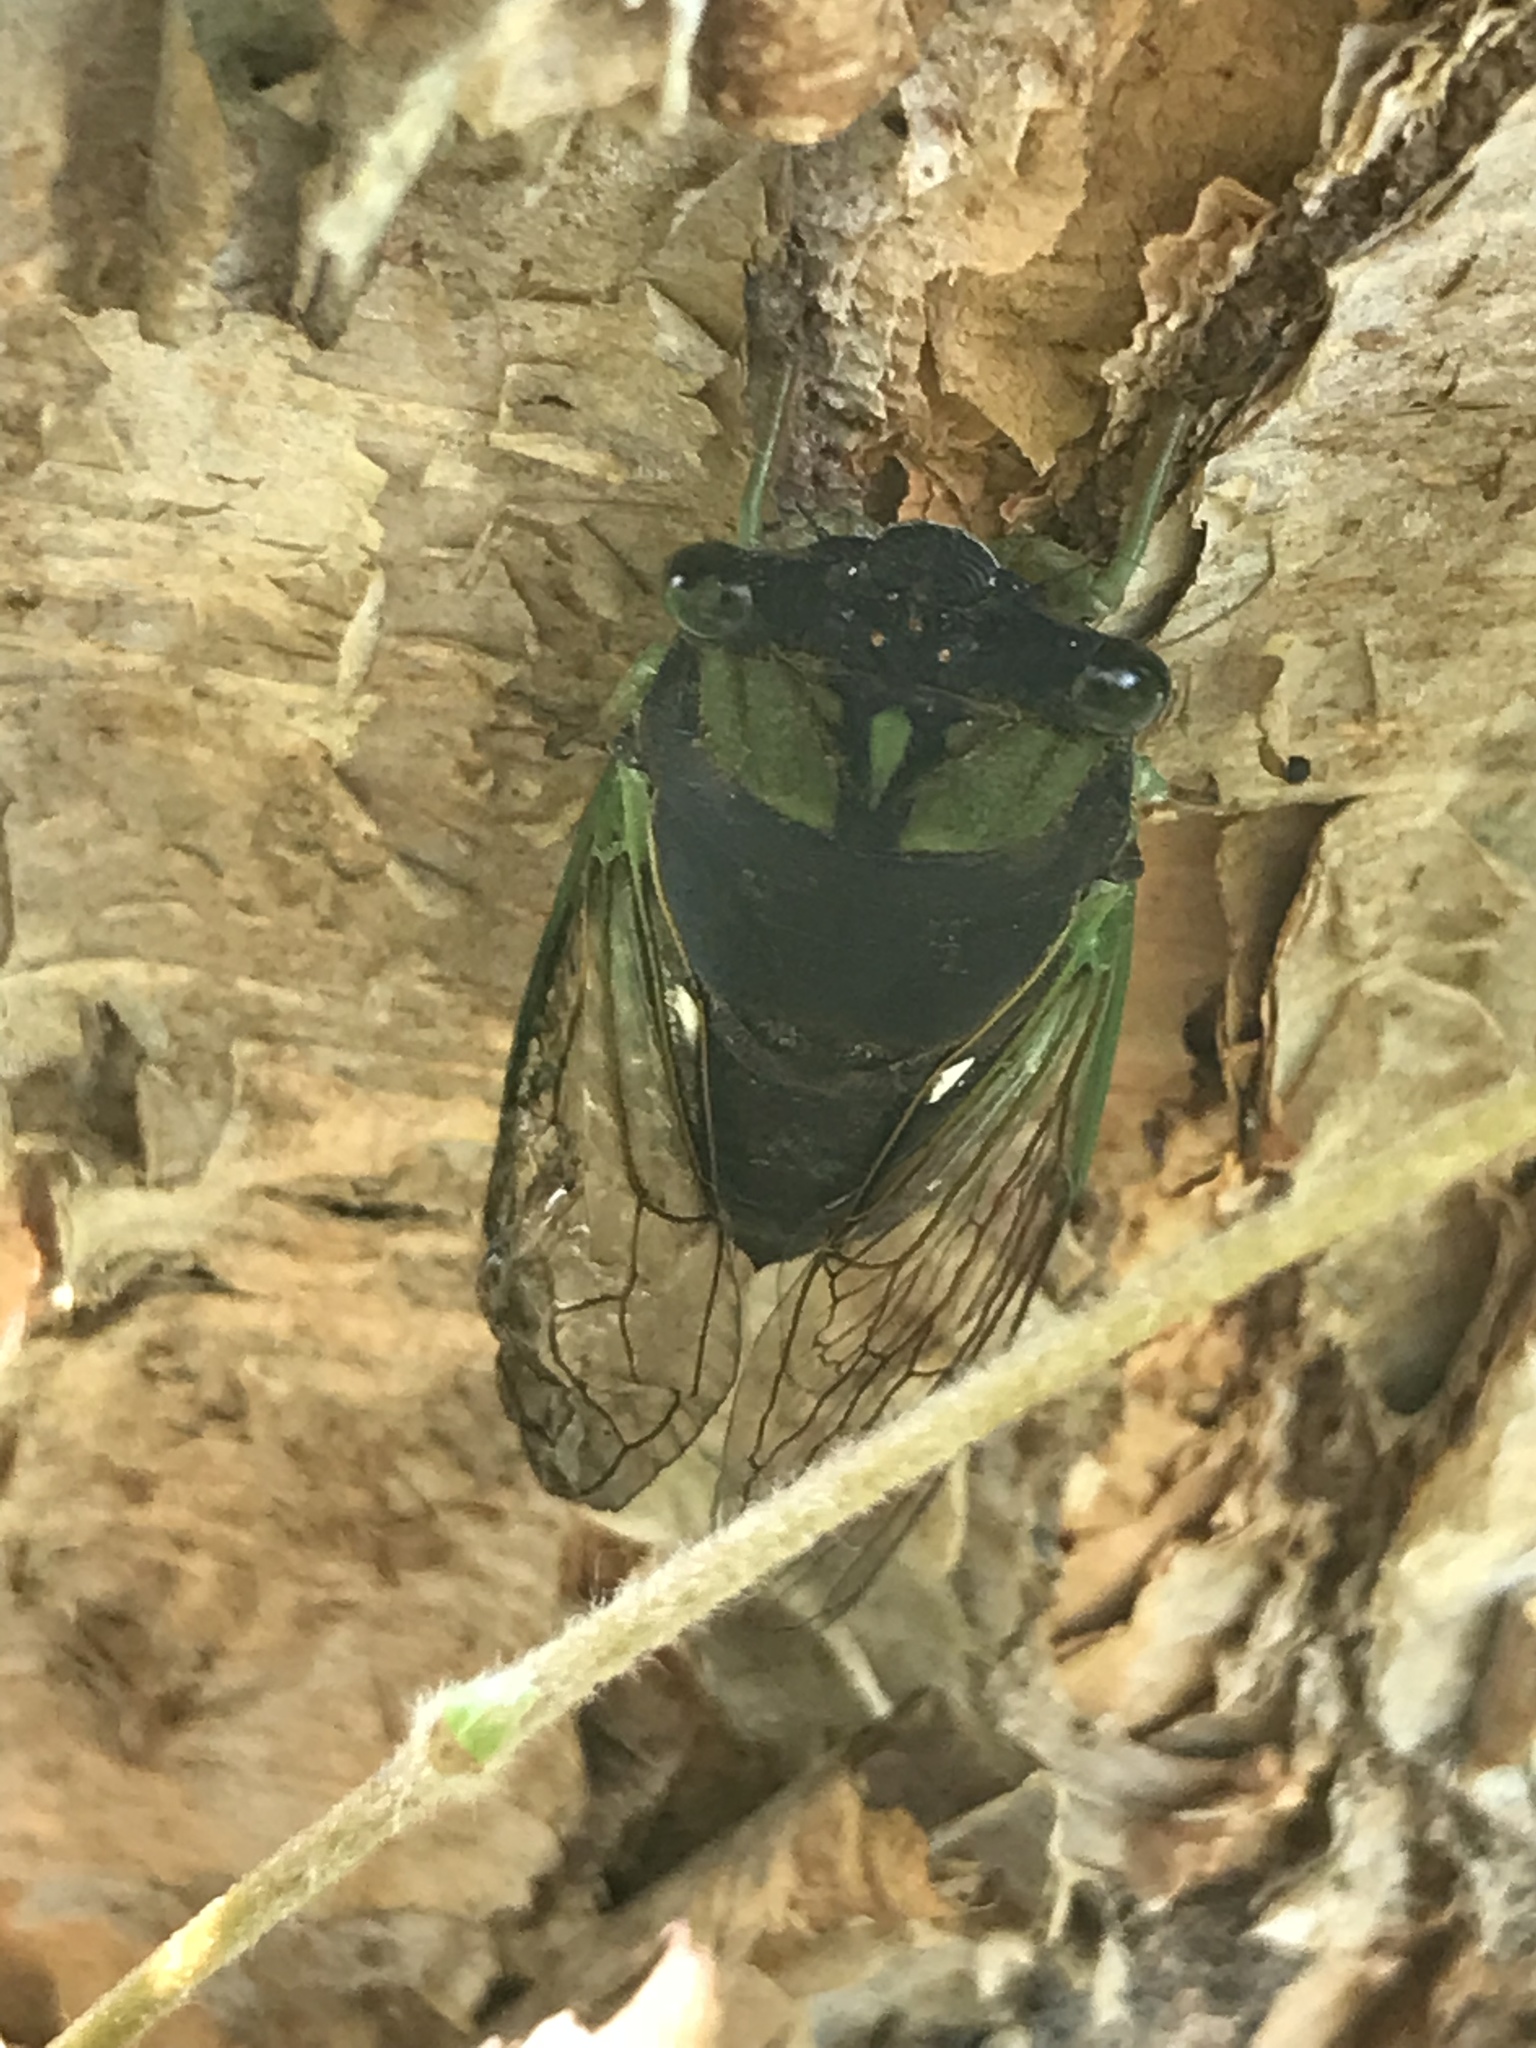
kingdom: Animalia
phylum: Arthropoda
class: Insecta
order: Hemiptera
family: Cicadidae
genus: Neotibicen
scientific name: Neotibicen tibicen
